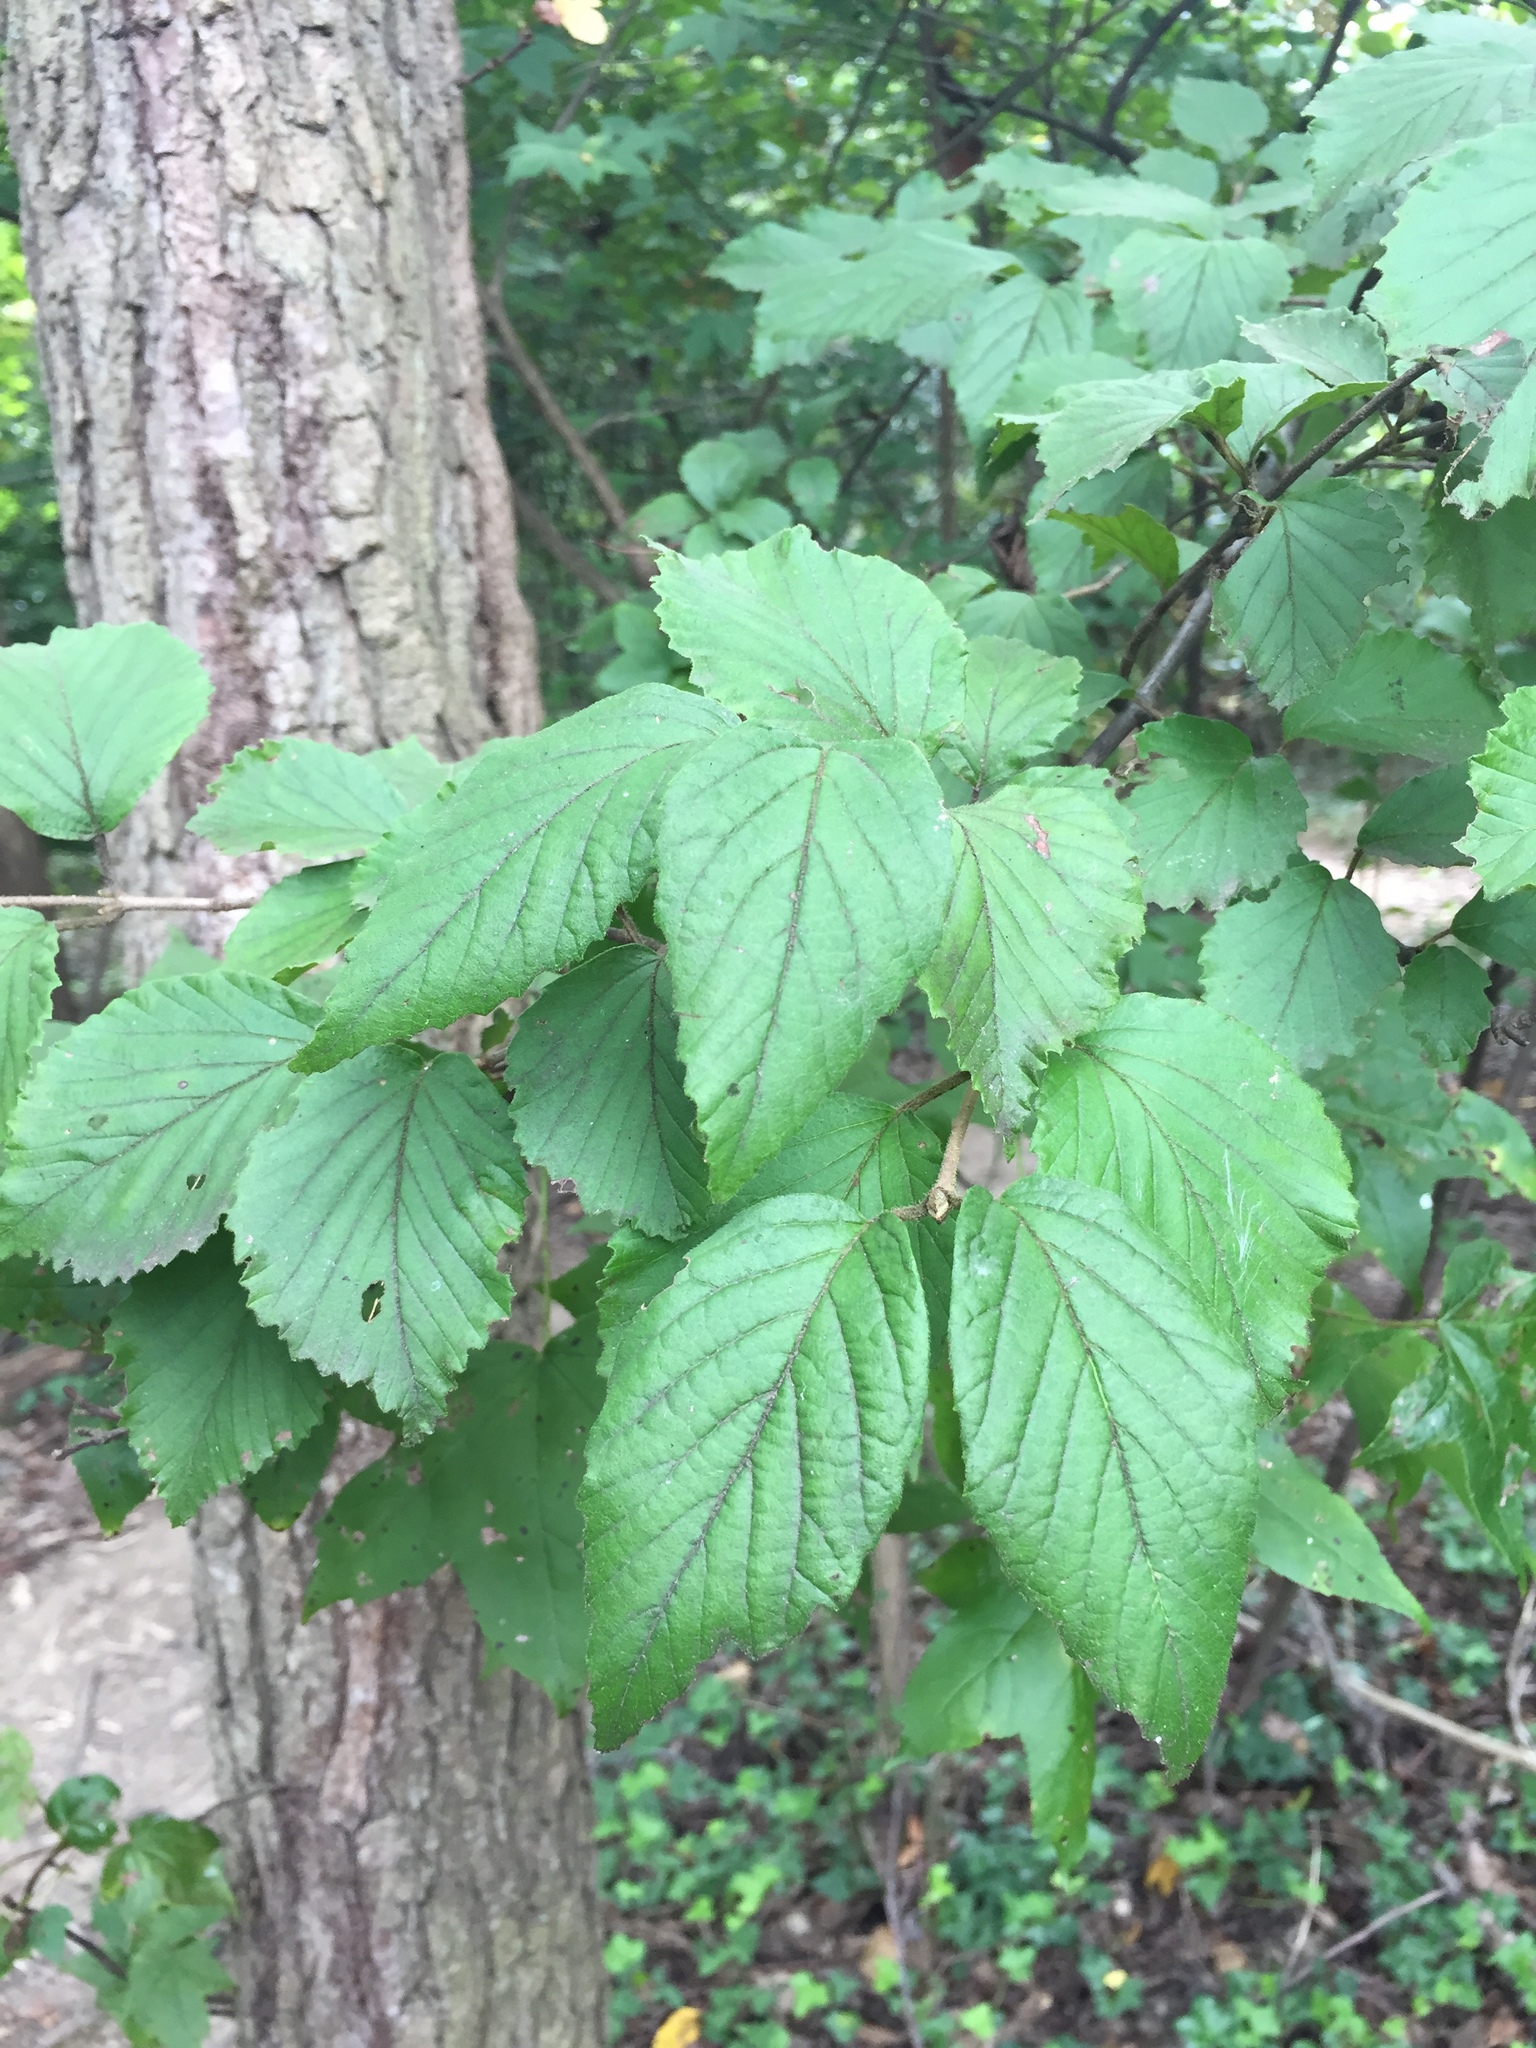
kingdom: Plantae
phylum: Tracheophyta
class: Magnoliopsida
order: Dipsacales
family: Viburnaceae
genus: Viburnum
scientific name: Viburnum dilatatum
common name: Linden arrowwood
